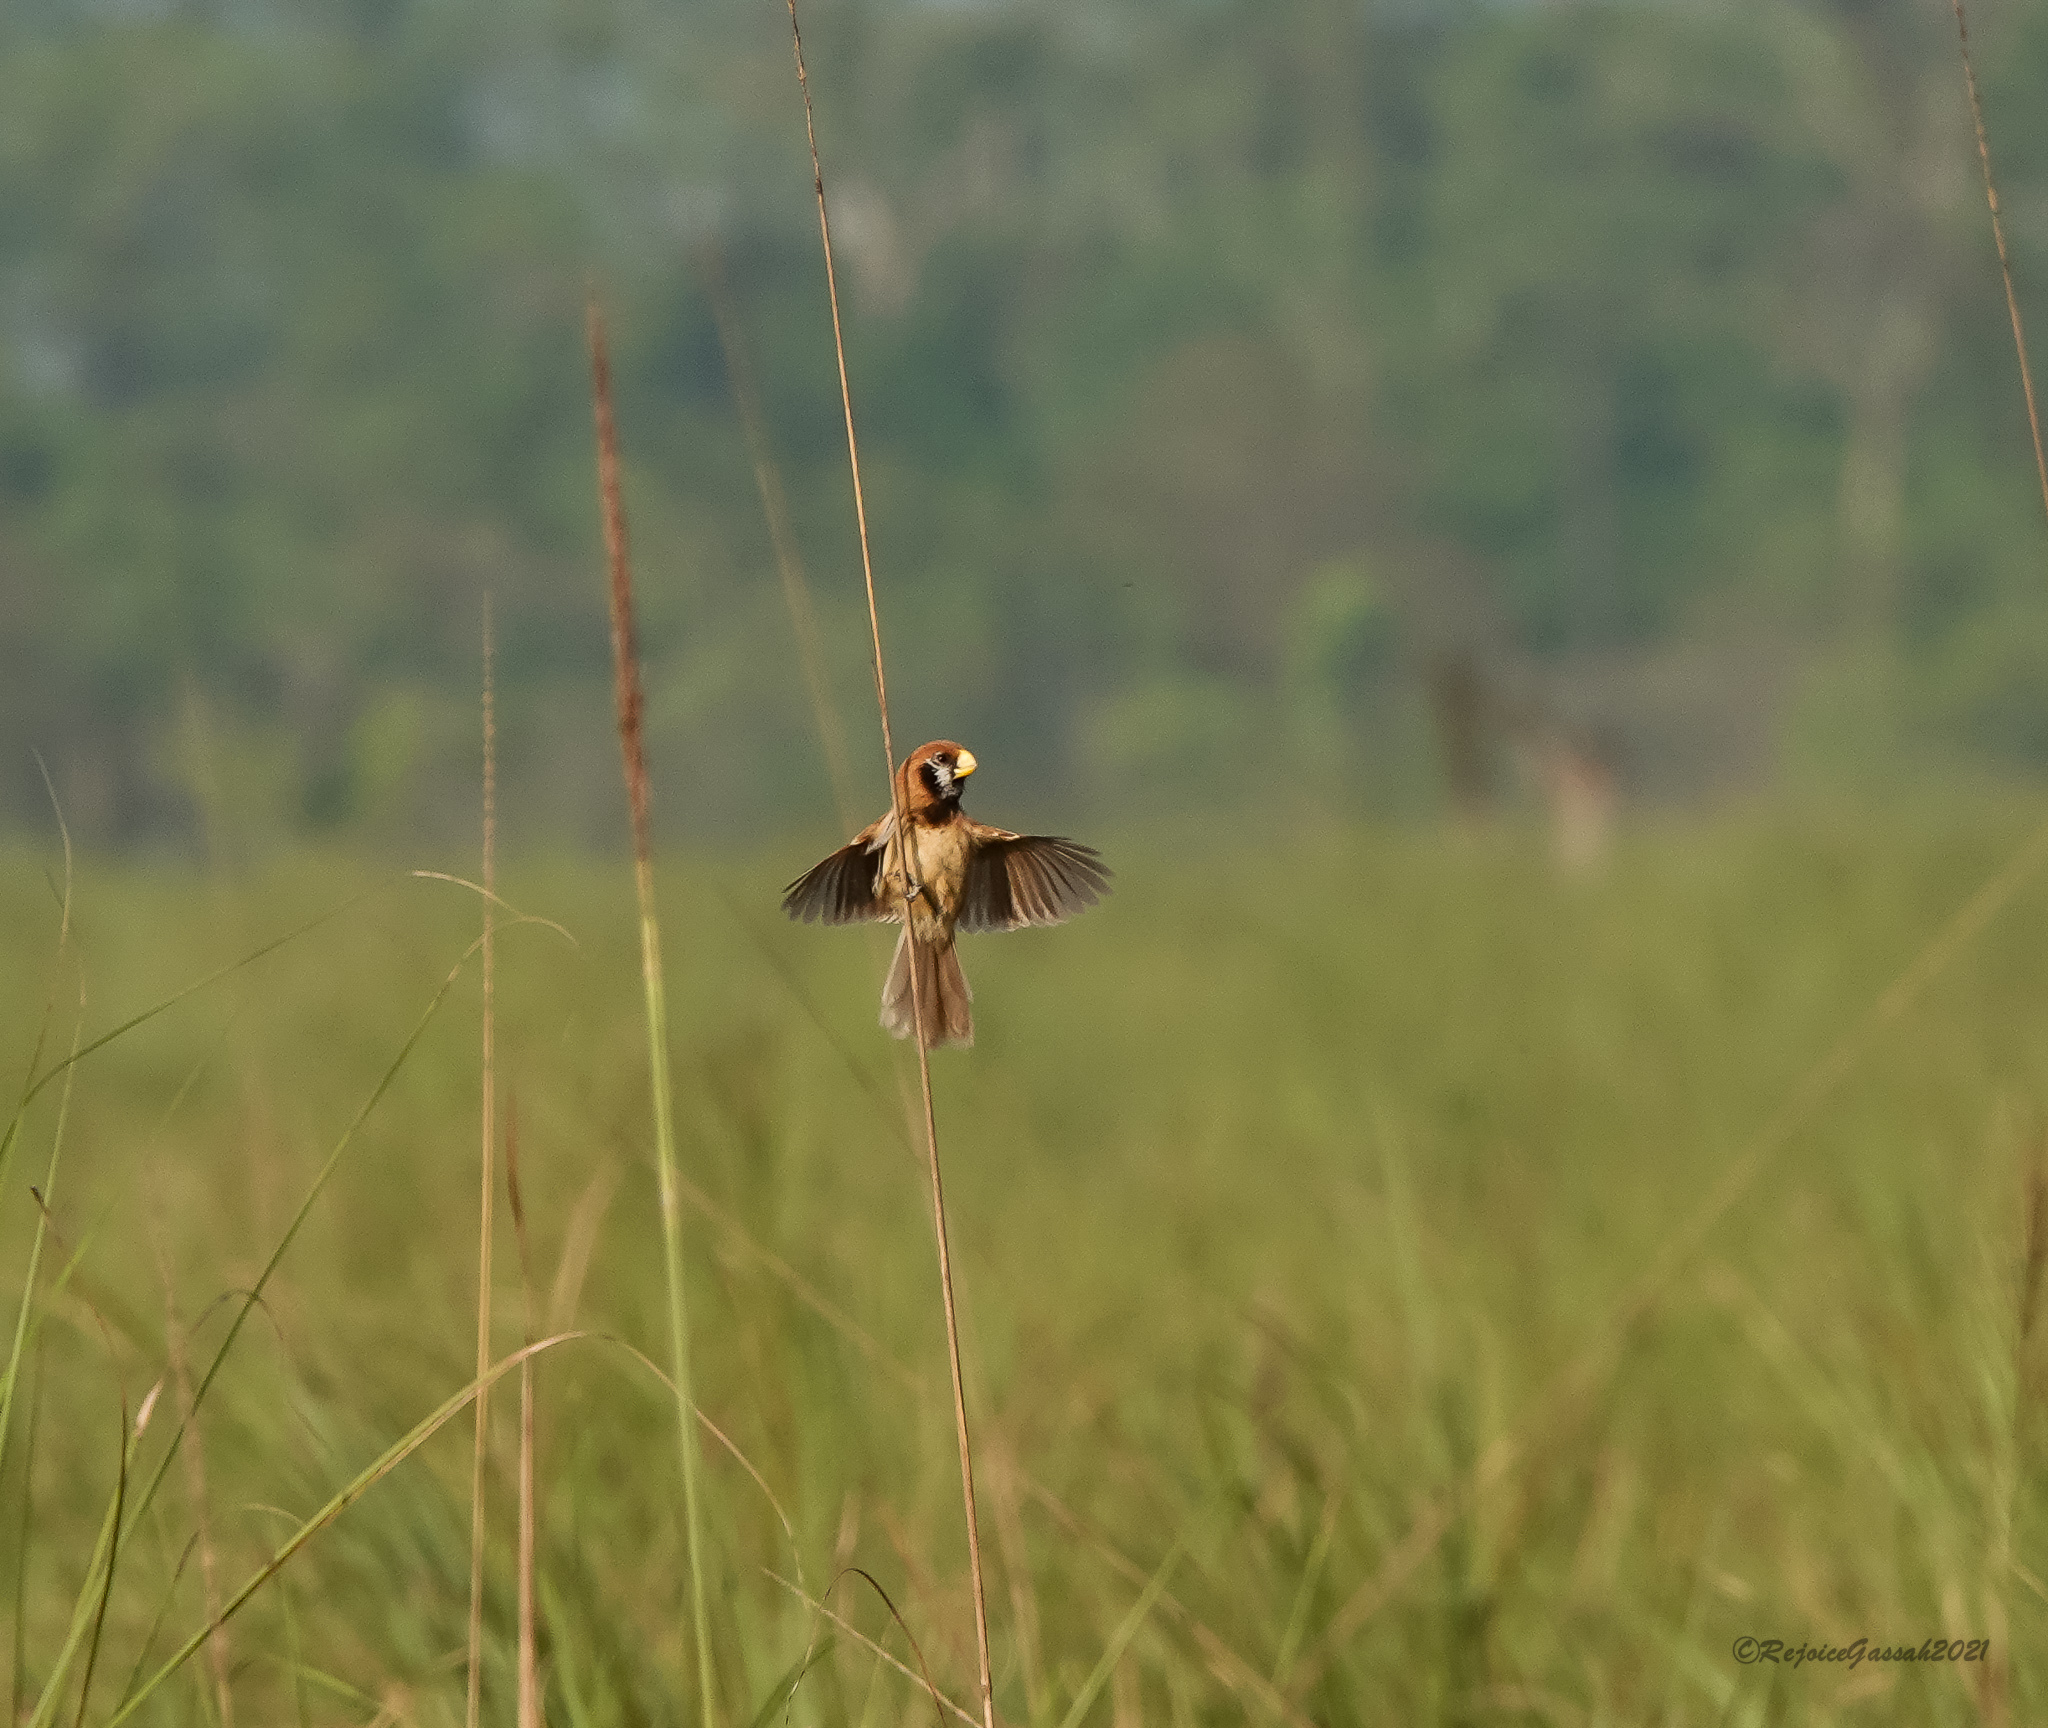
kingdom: Animalia
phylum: Chordata
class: Aves
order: Passeriformes
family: Sylviidae
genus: Paradoxornis
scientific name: Paradoxornis flavirostris
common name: Black-breasted parrotbill
